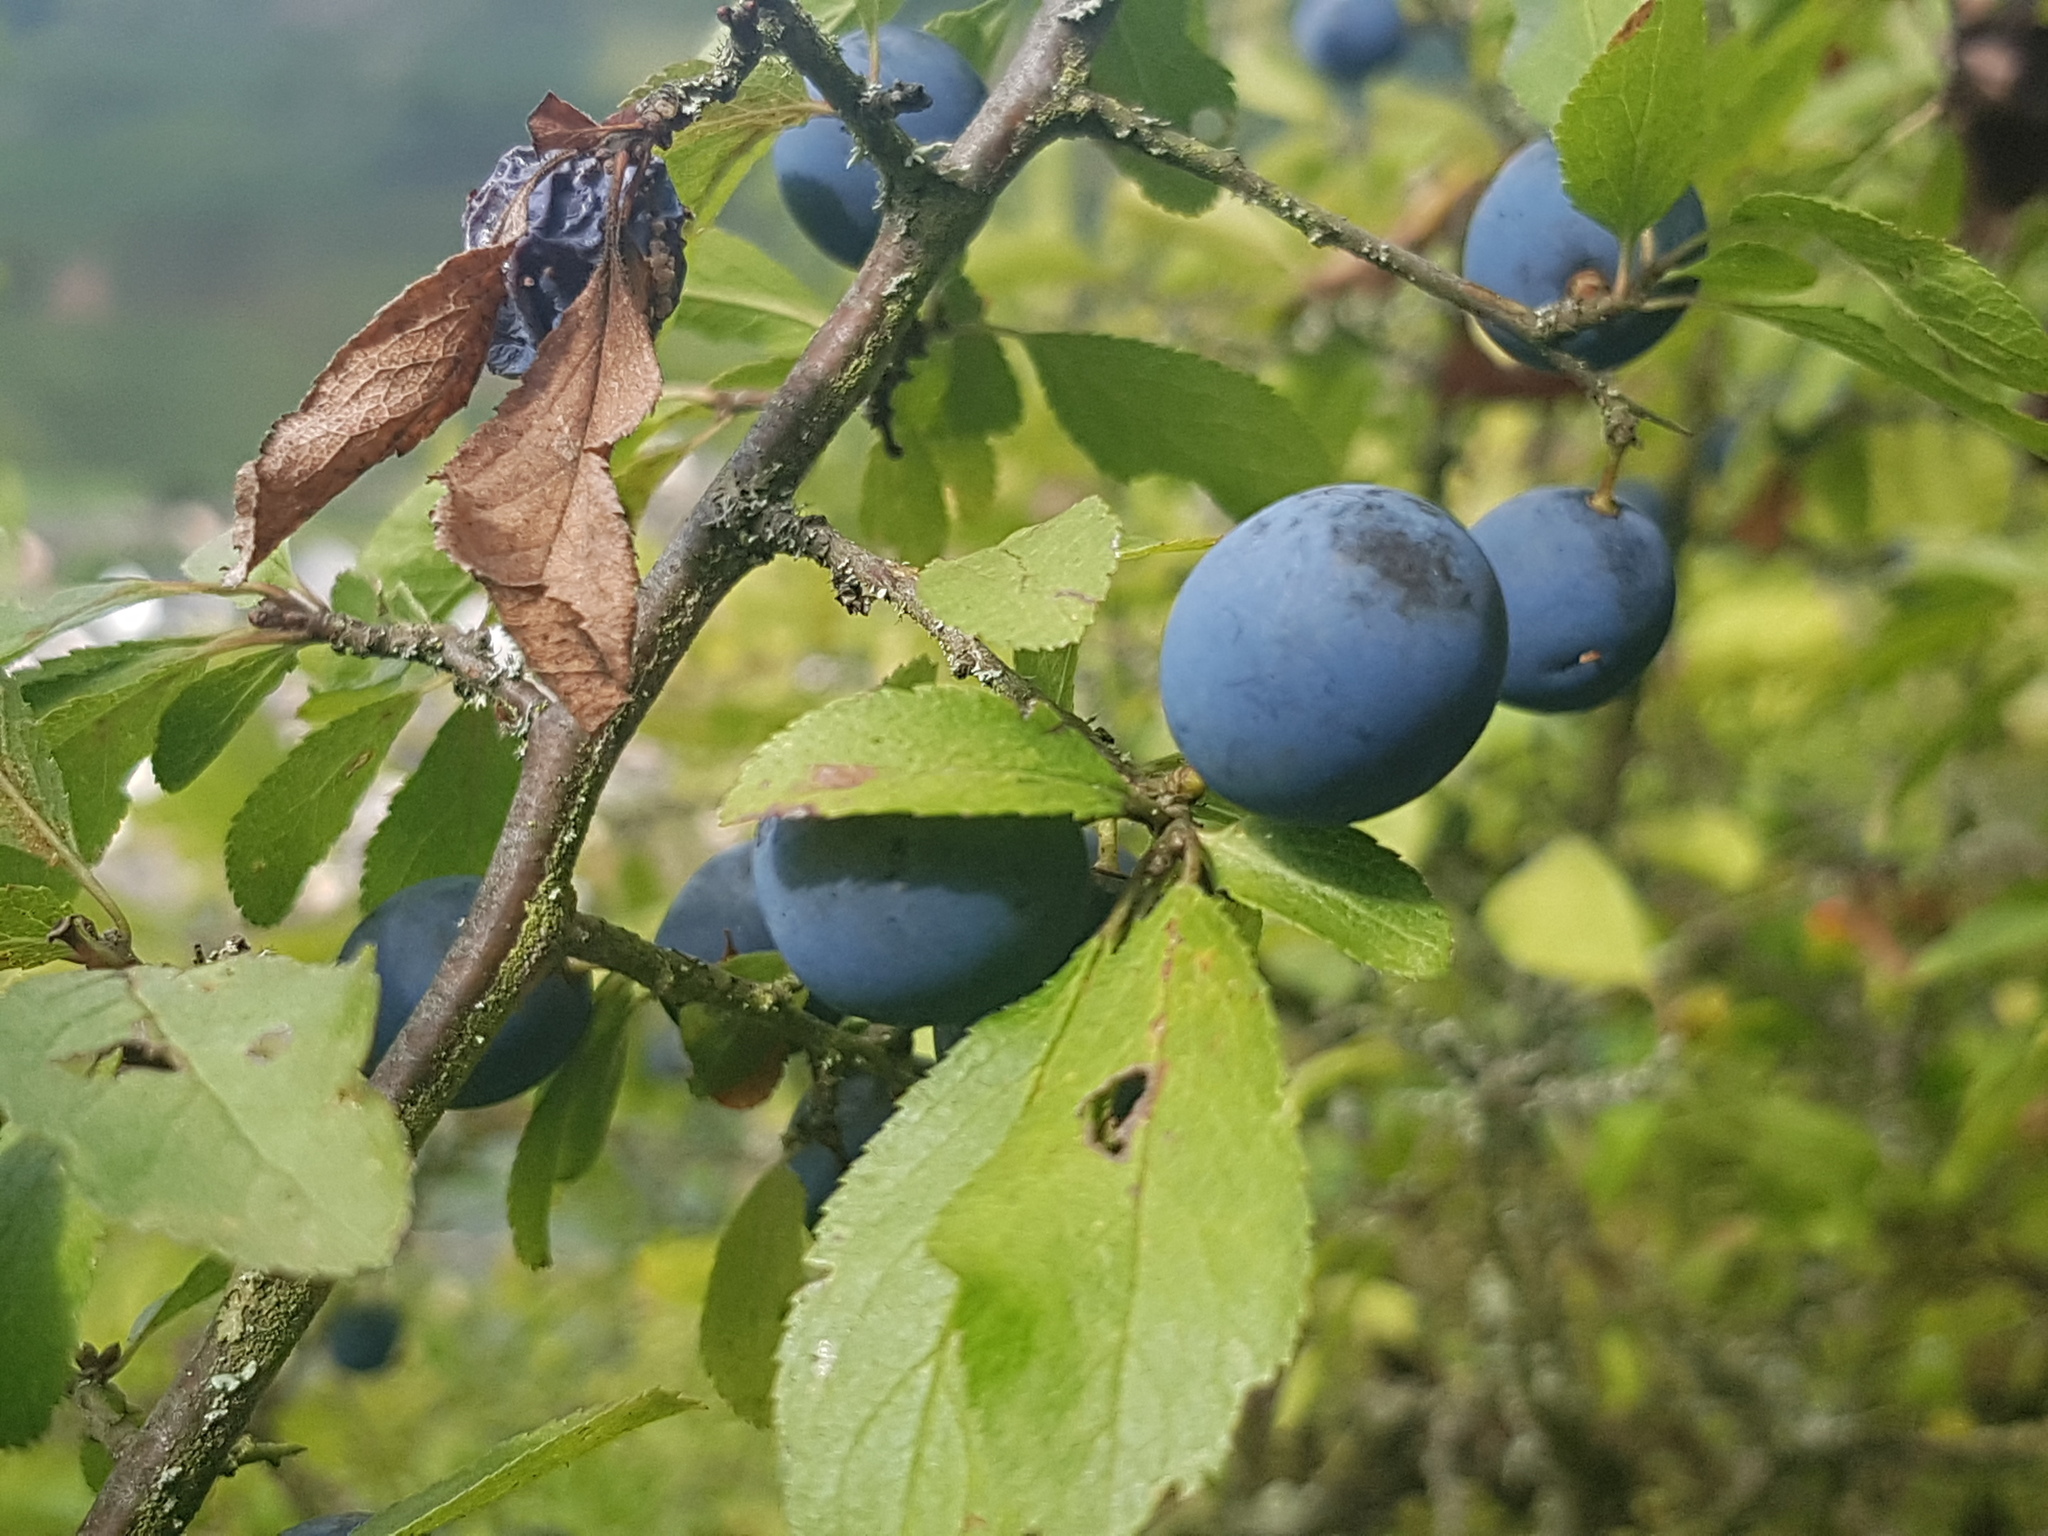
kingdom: Plantae
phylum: Tracheophyta
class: Magnoliopsida
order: Rosales
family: Rosaceae
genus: Prunus
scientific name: Prunus spinosa
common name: Blackthorn
